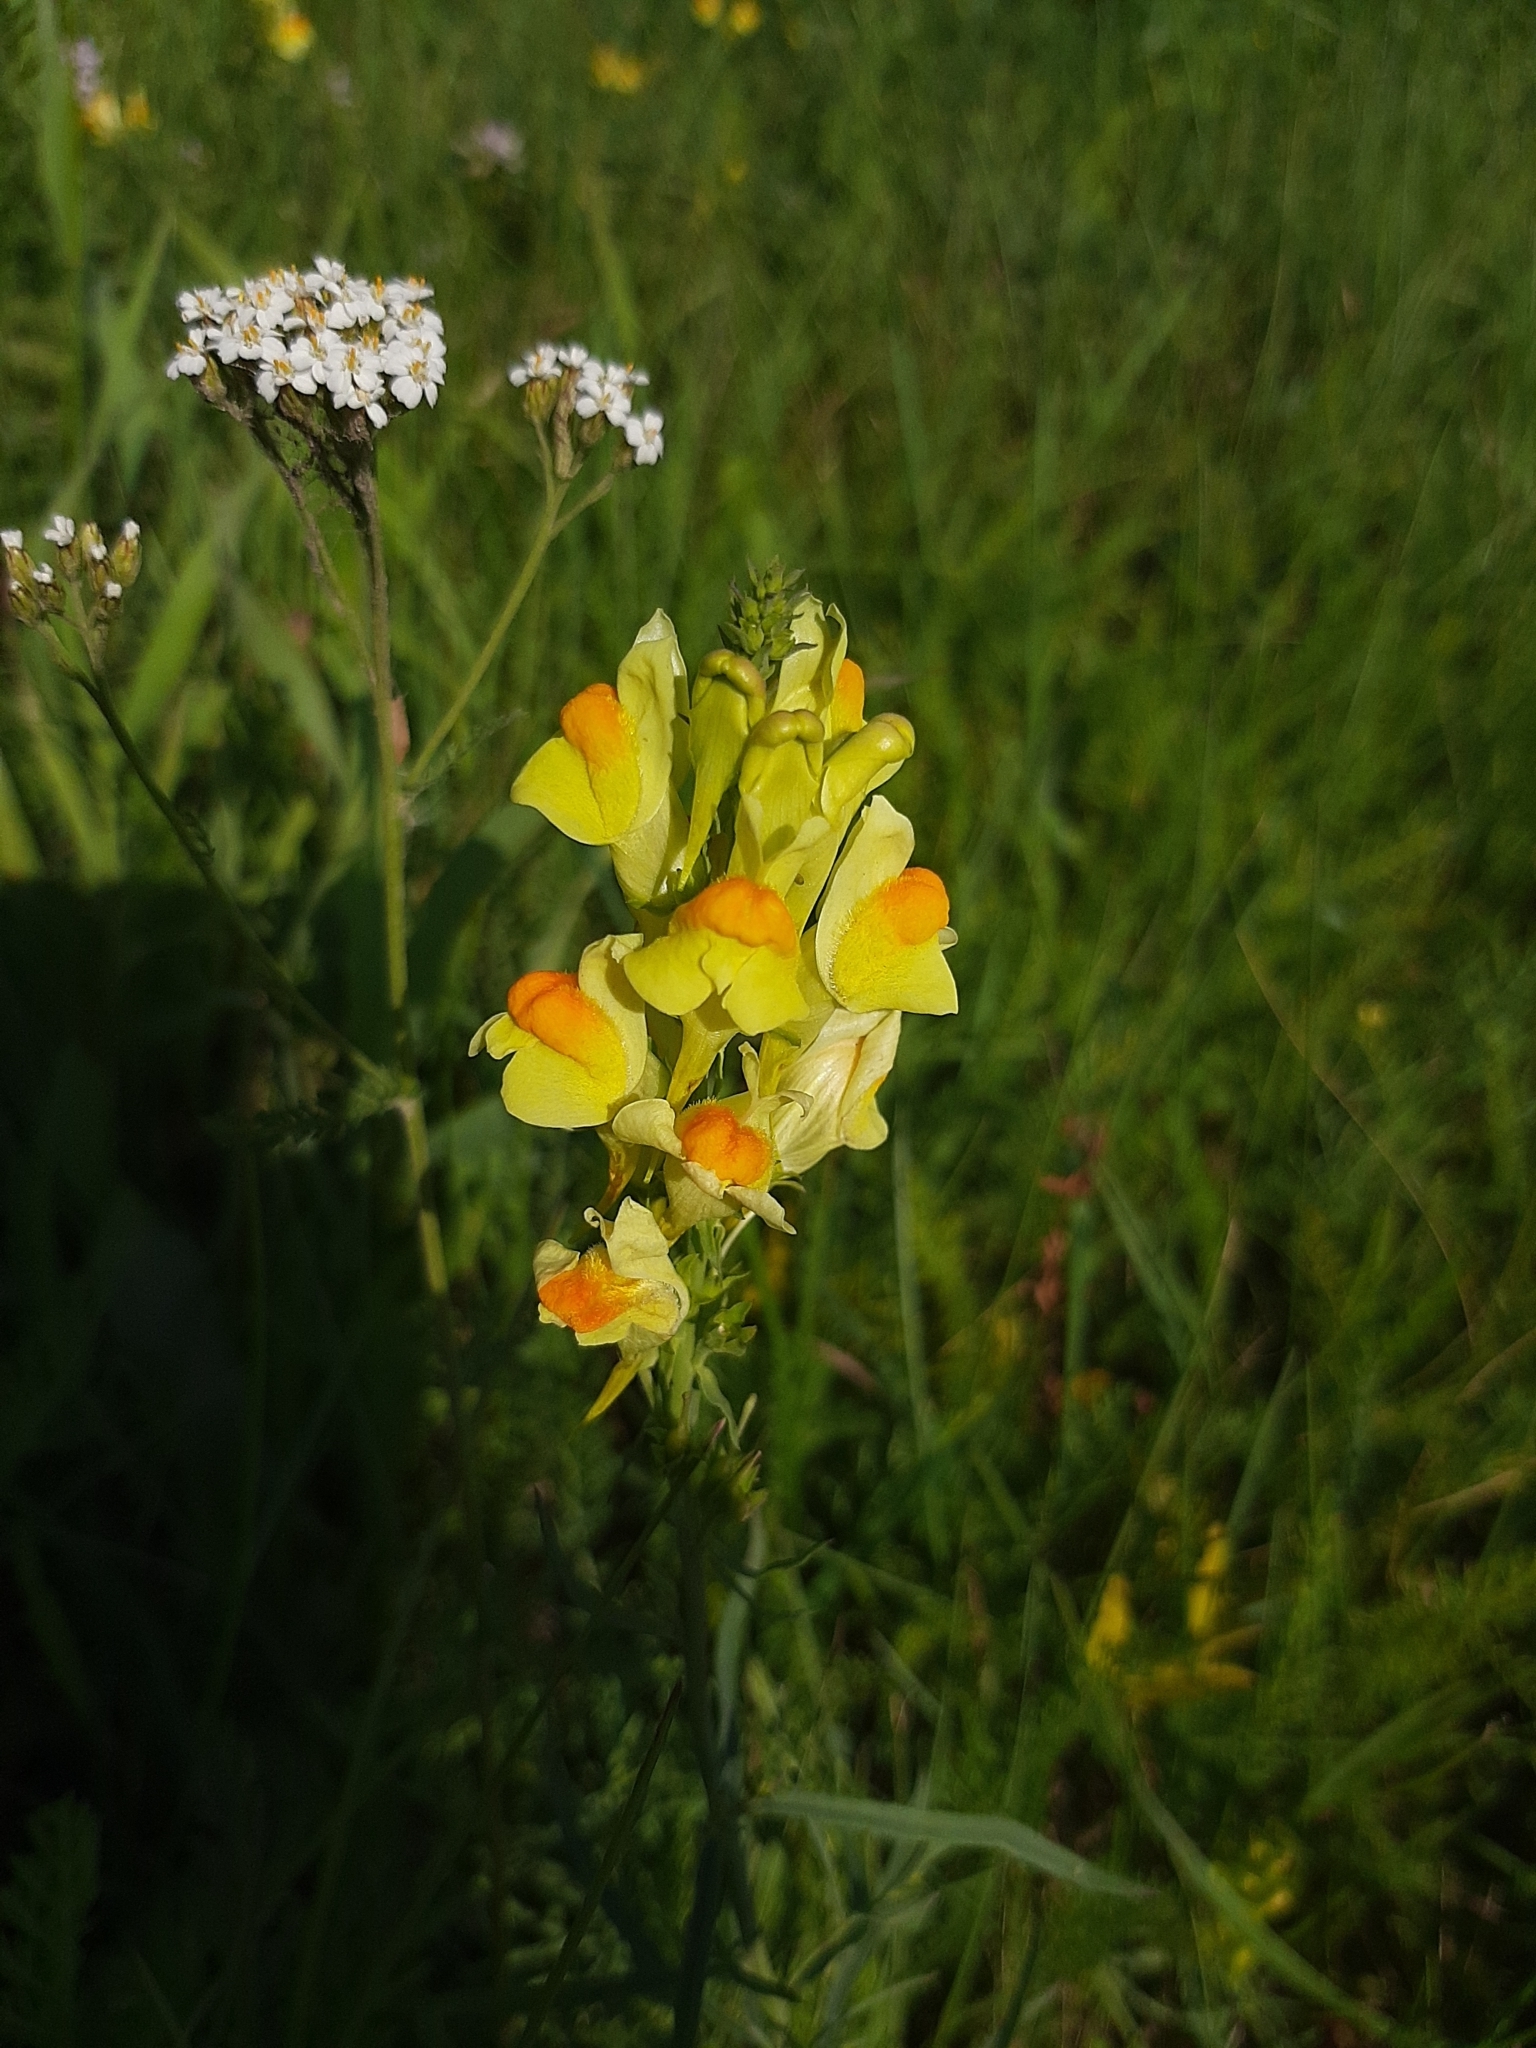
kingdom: Plantae
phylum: Tracheophyta
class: Magnoliopsida
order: Lamiales
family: Plantaginaceae
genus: Linaria
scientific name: Linaria vulgaris
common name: Butter and eggs
